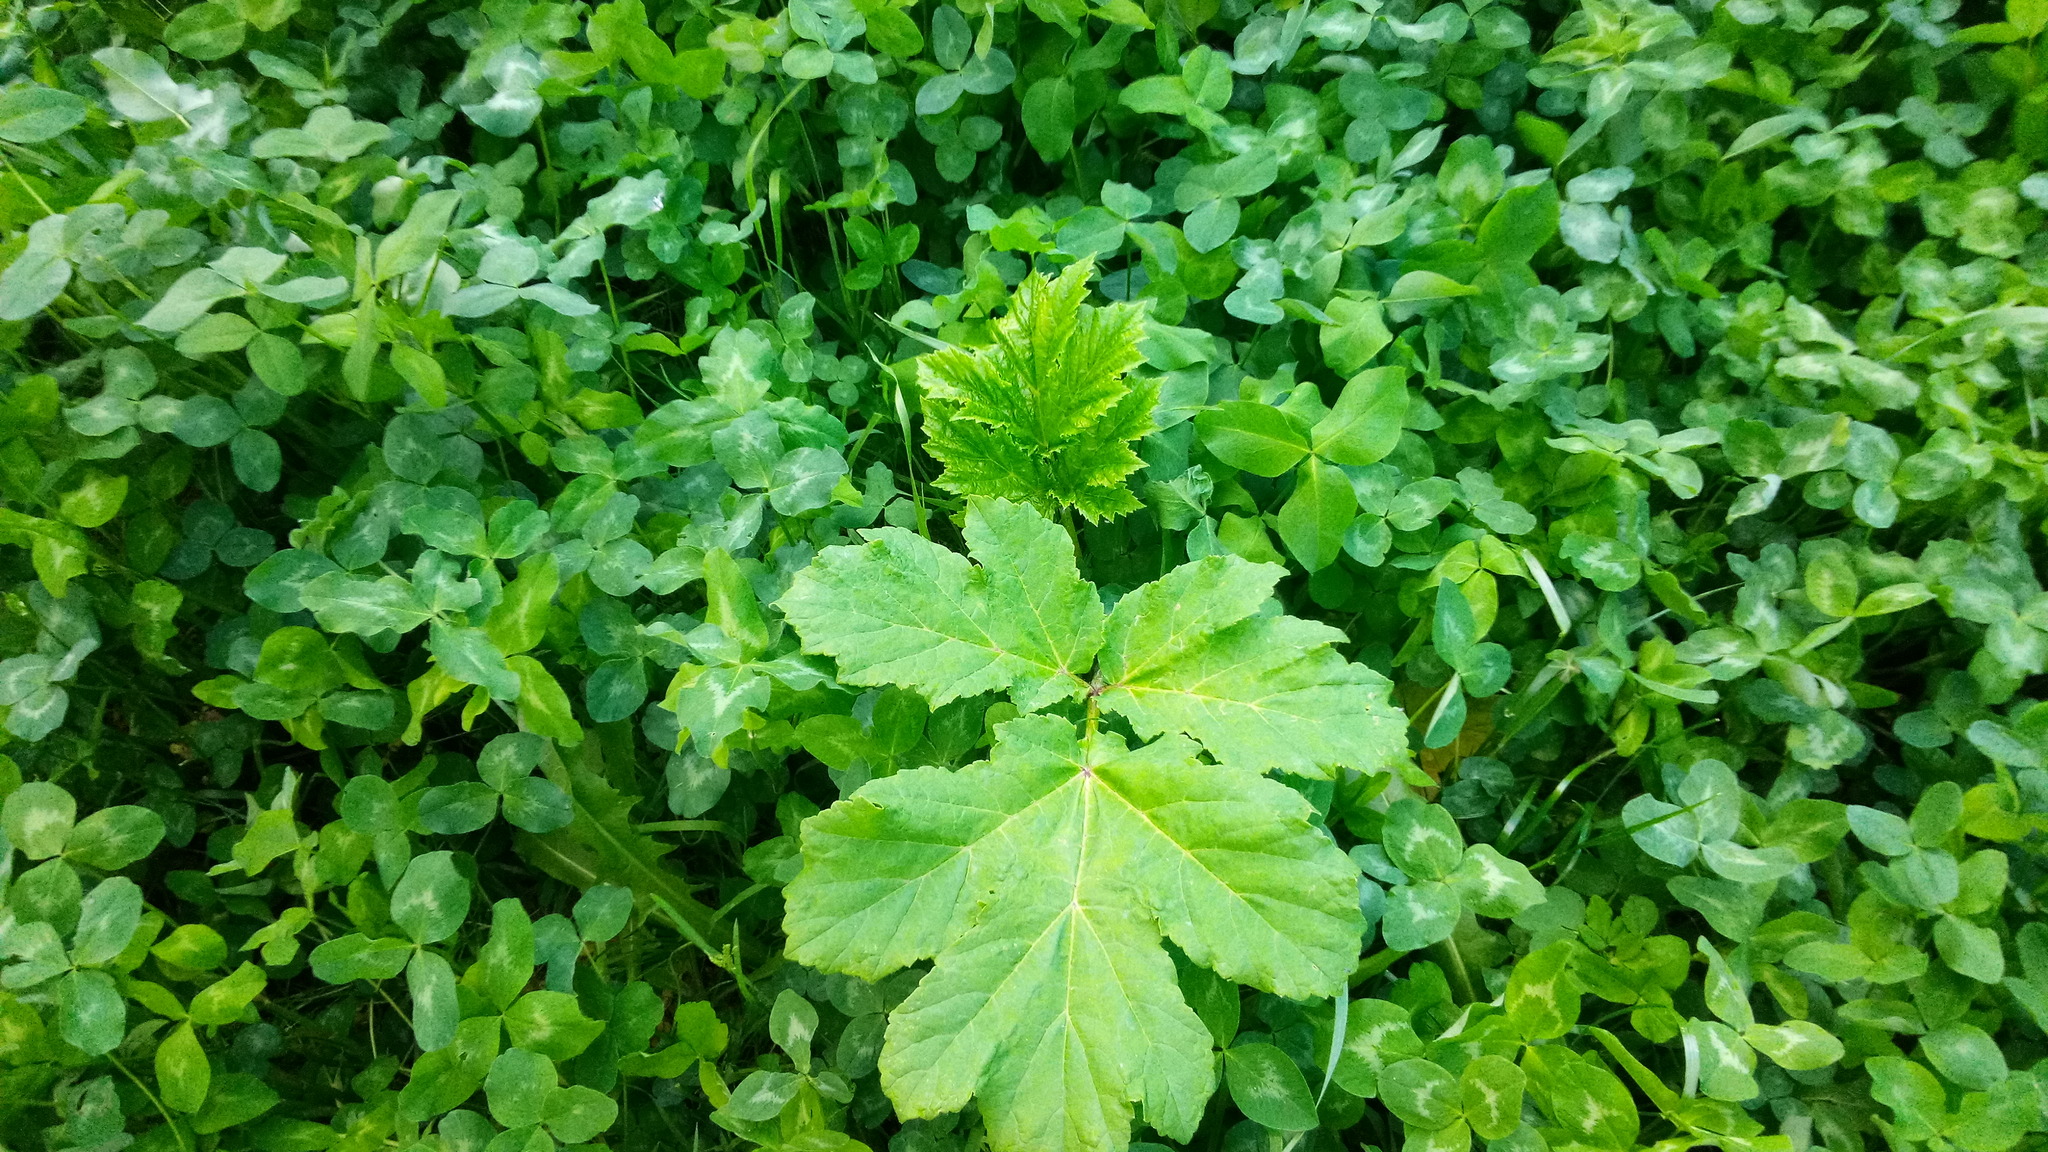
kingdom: Plantae
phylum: Tracheophyta
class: Magnoliopsida
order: Apiales
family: Apiaceae
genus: Heracleum
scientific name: Heracleum sosnowskyi
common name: Sosnowsky's hogweed
